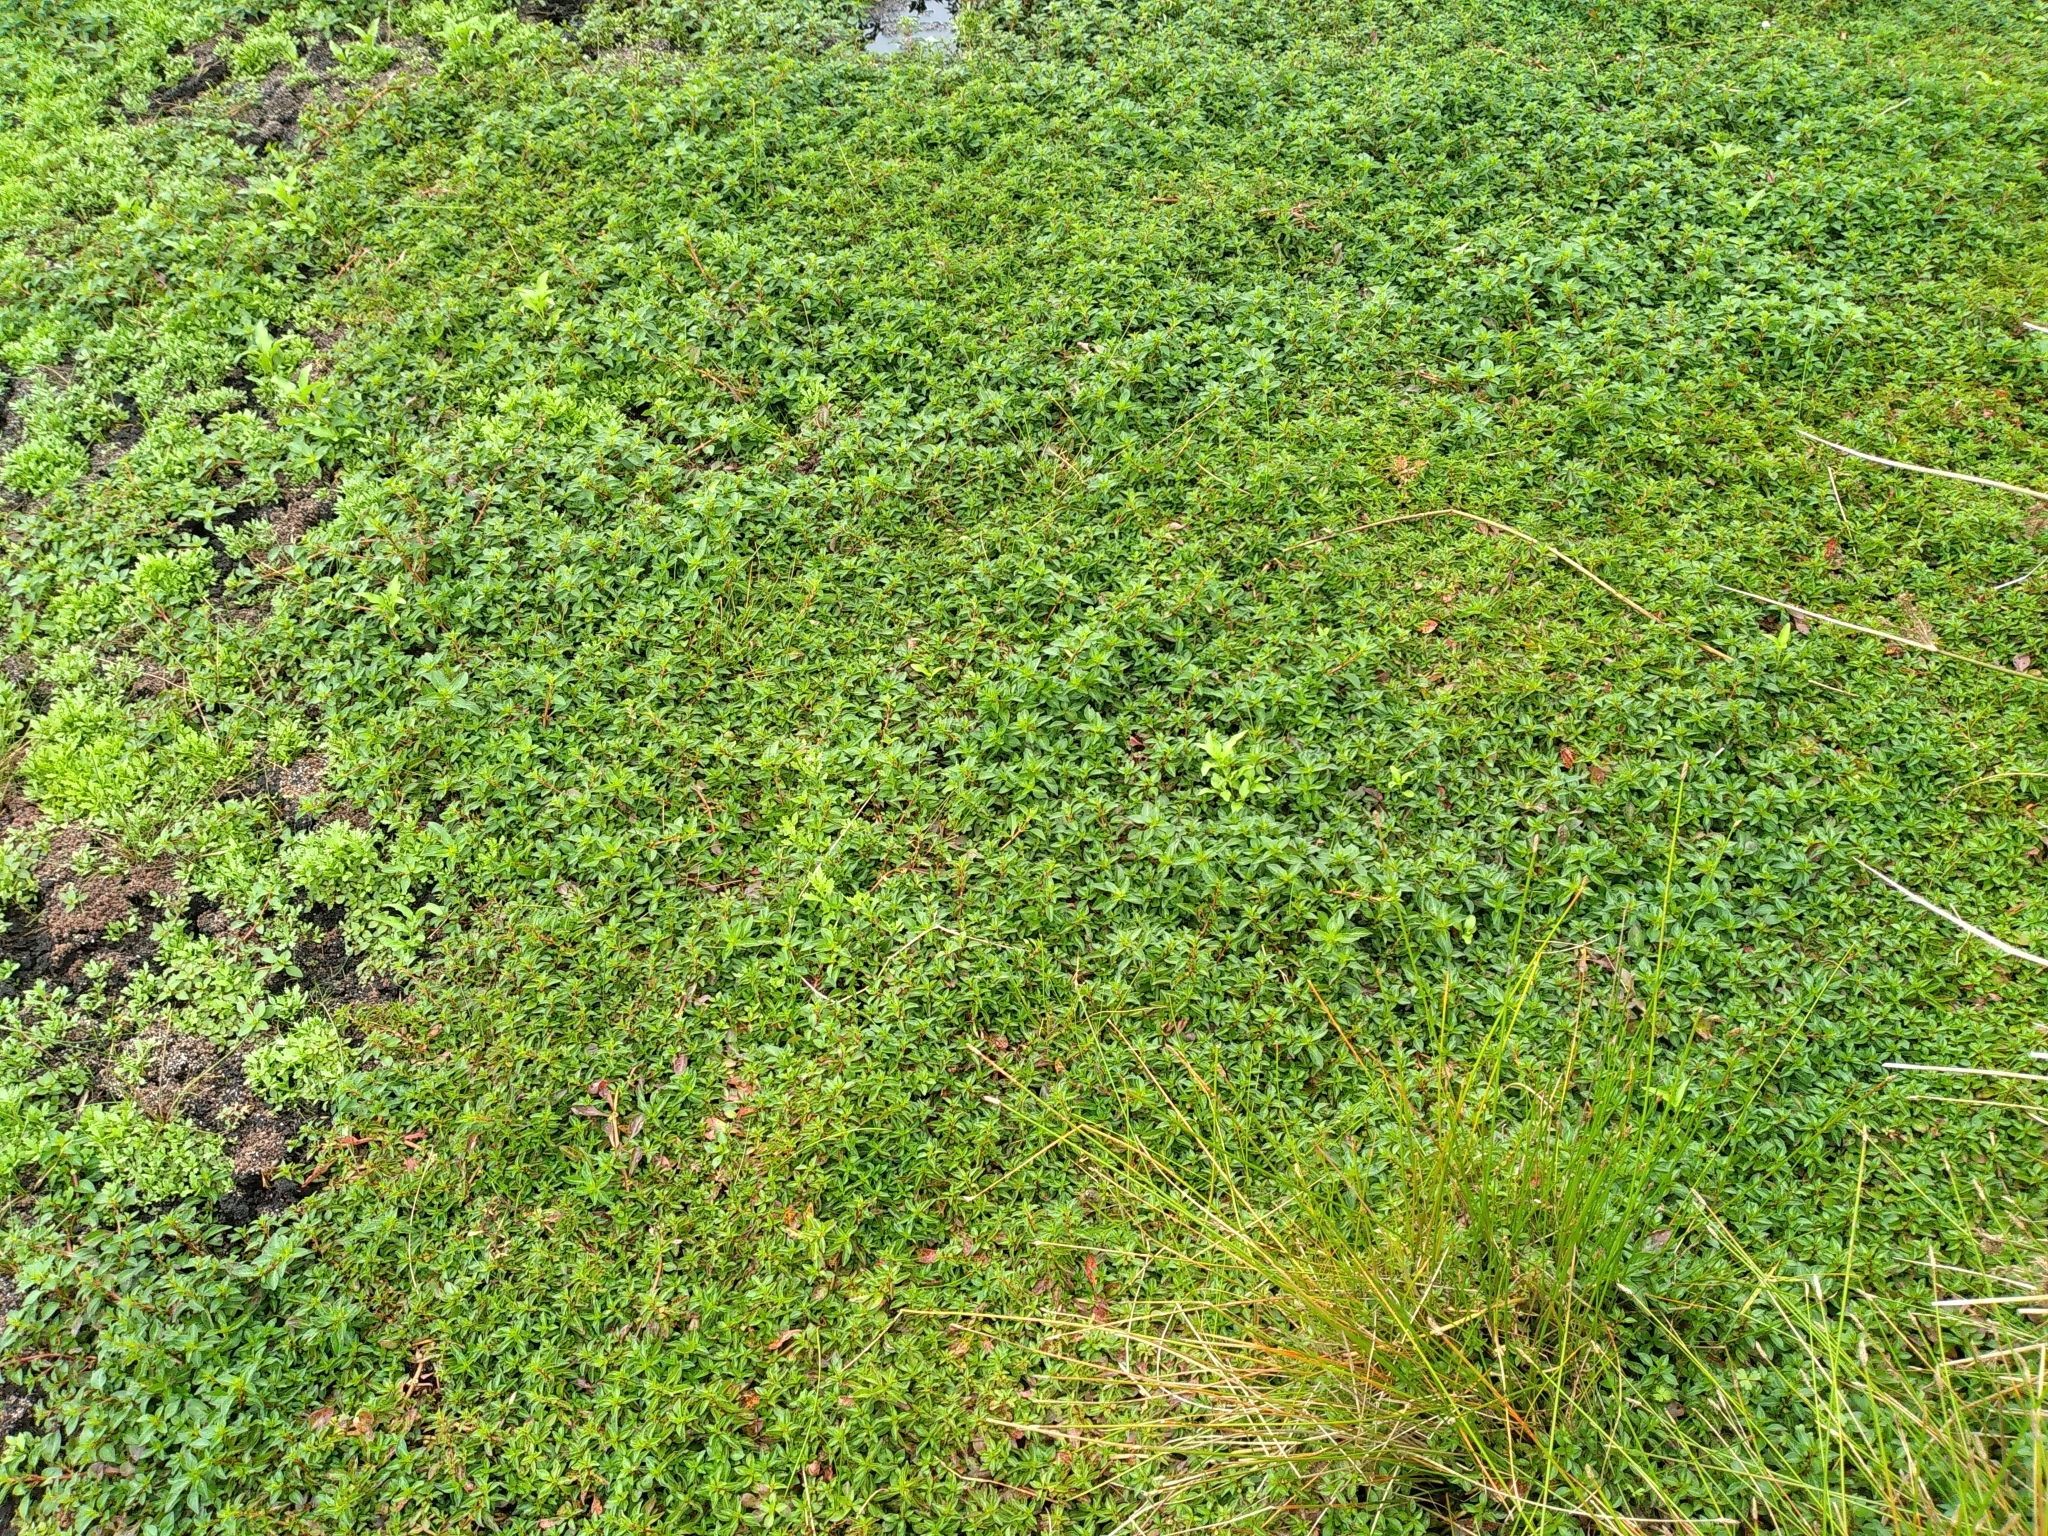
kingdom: Plantae
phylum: Tracheophyta
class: Magnoliopsida
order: Myrtales
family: Onagraceae
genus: Ludwigia
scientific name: Ludwigia palustris
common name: Hampshire-purslane
